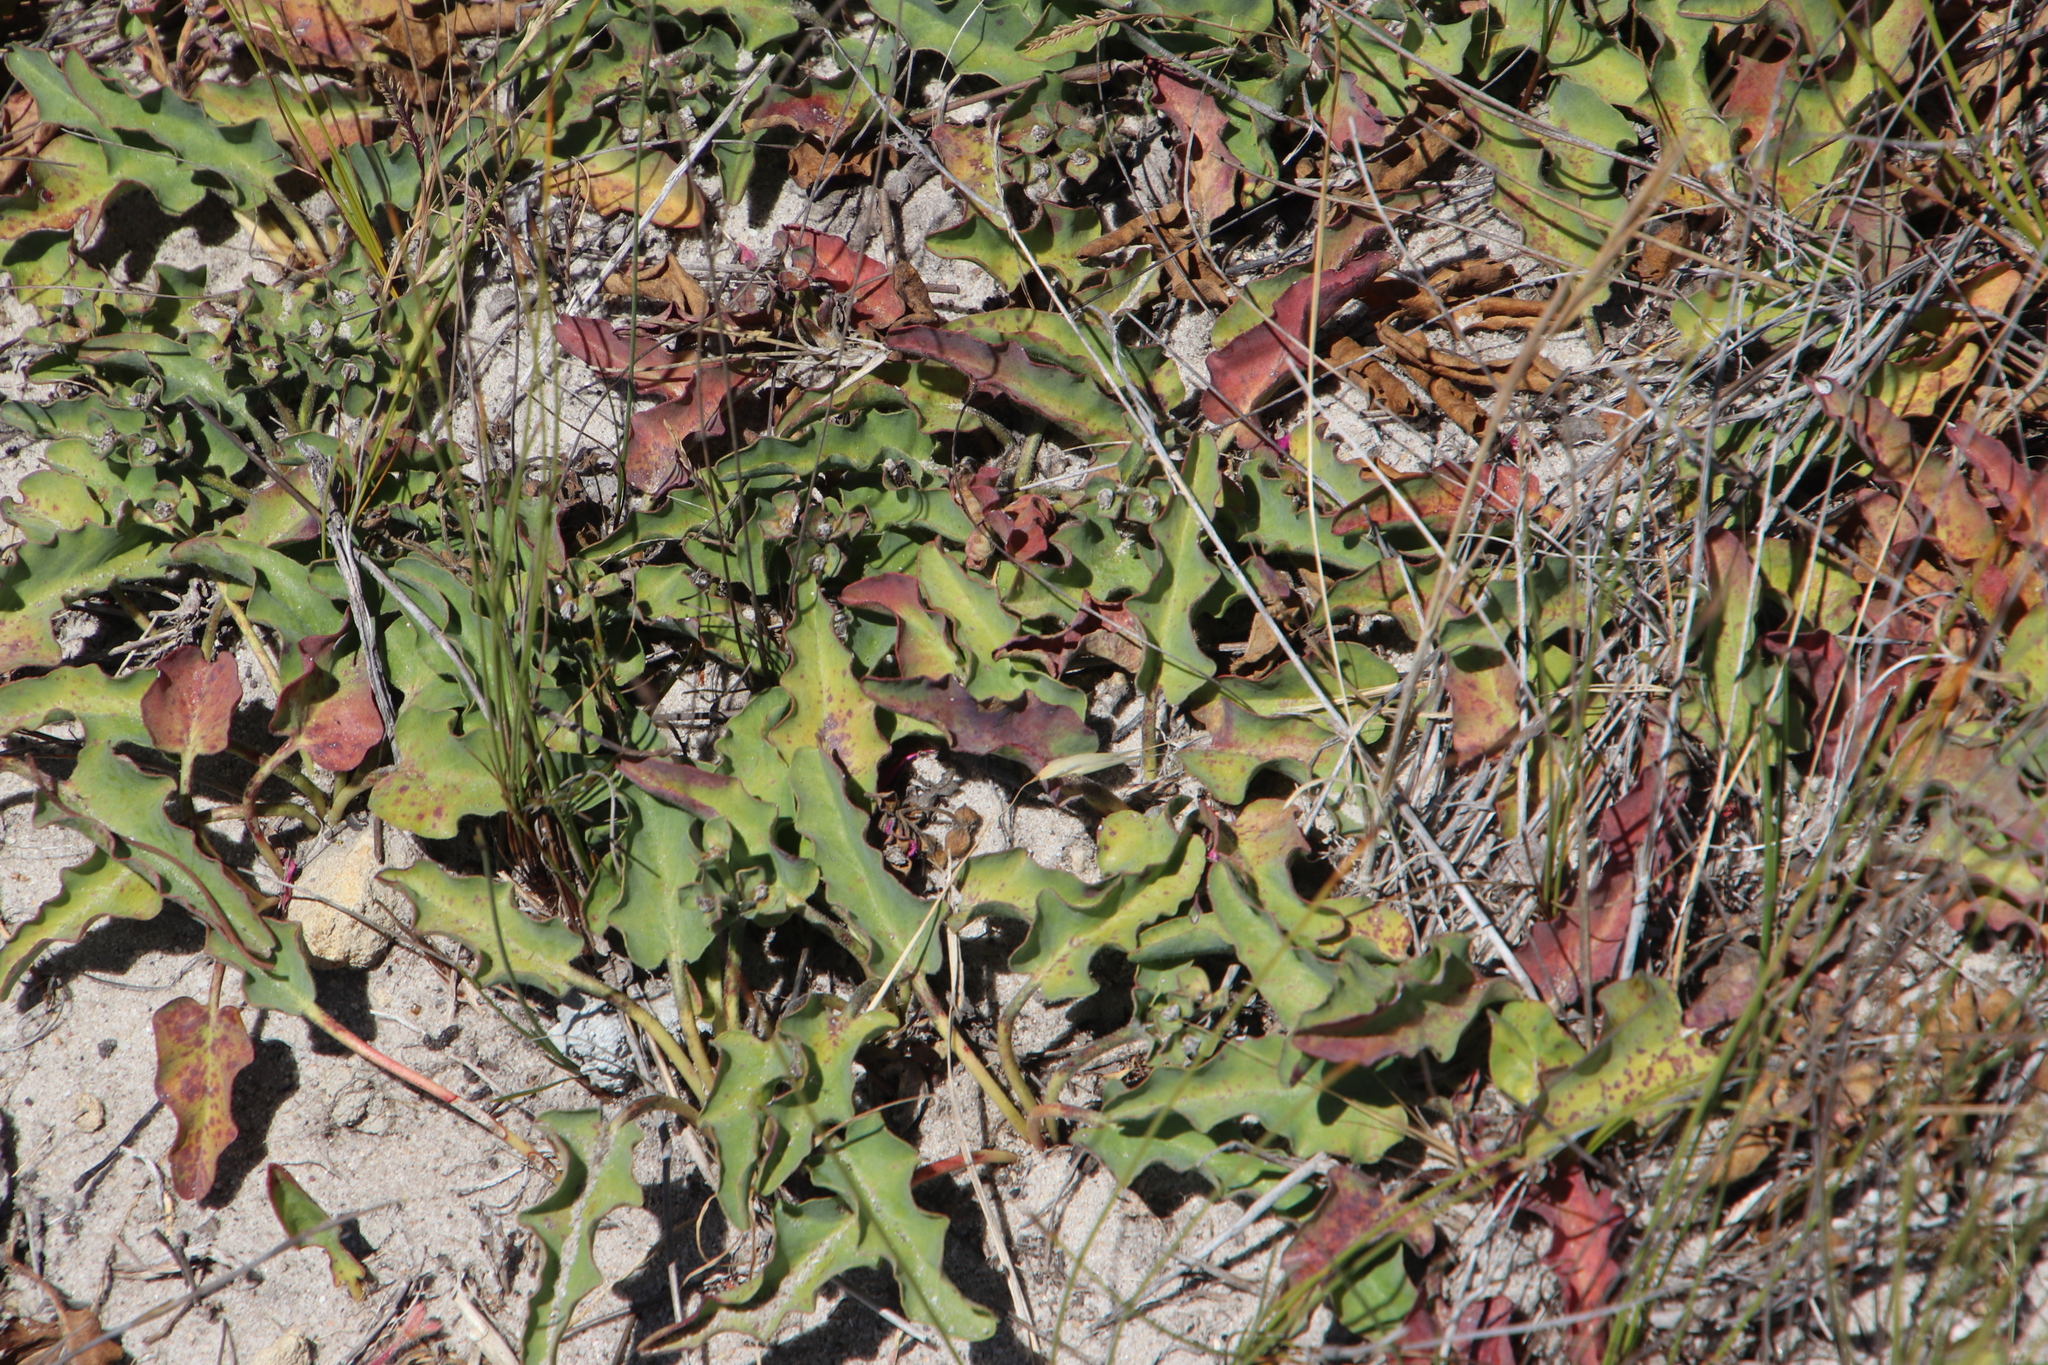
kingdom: Plantae
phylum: Tracheophyta
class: Magnoliopsida
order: Malpighiales
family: Euphorbiaceae
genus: Euphorbia
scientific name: Euphorbia tuberosa
